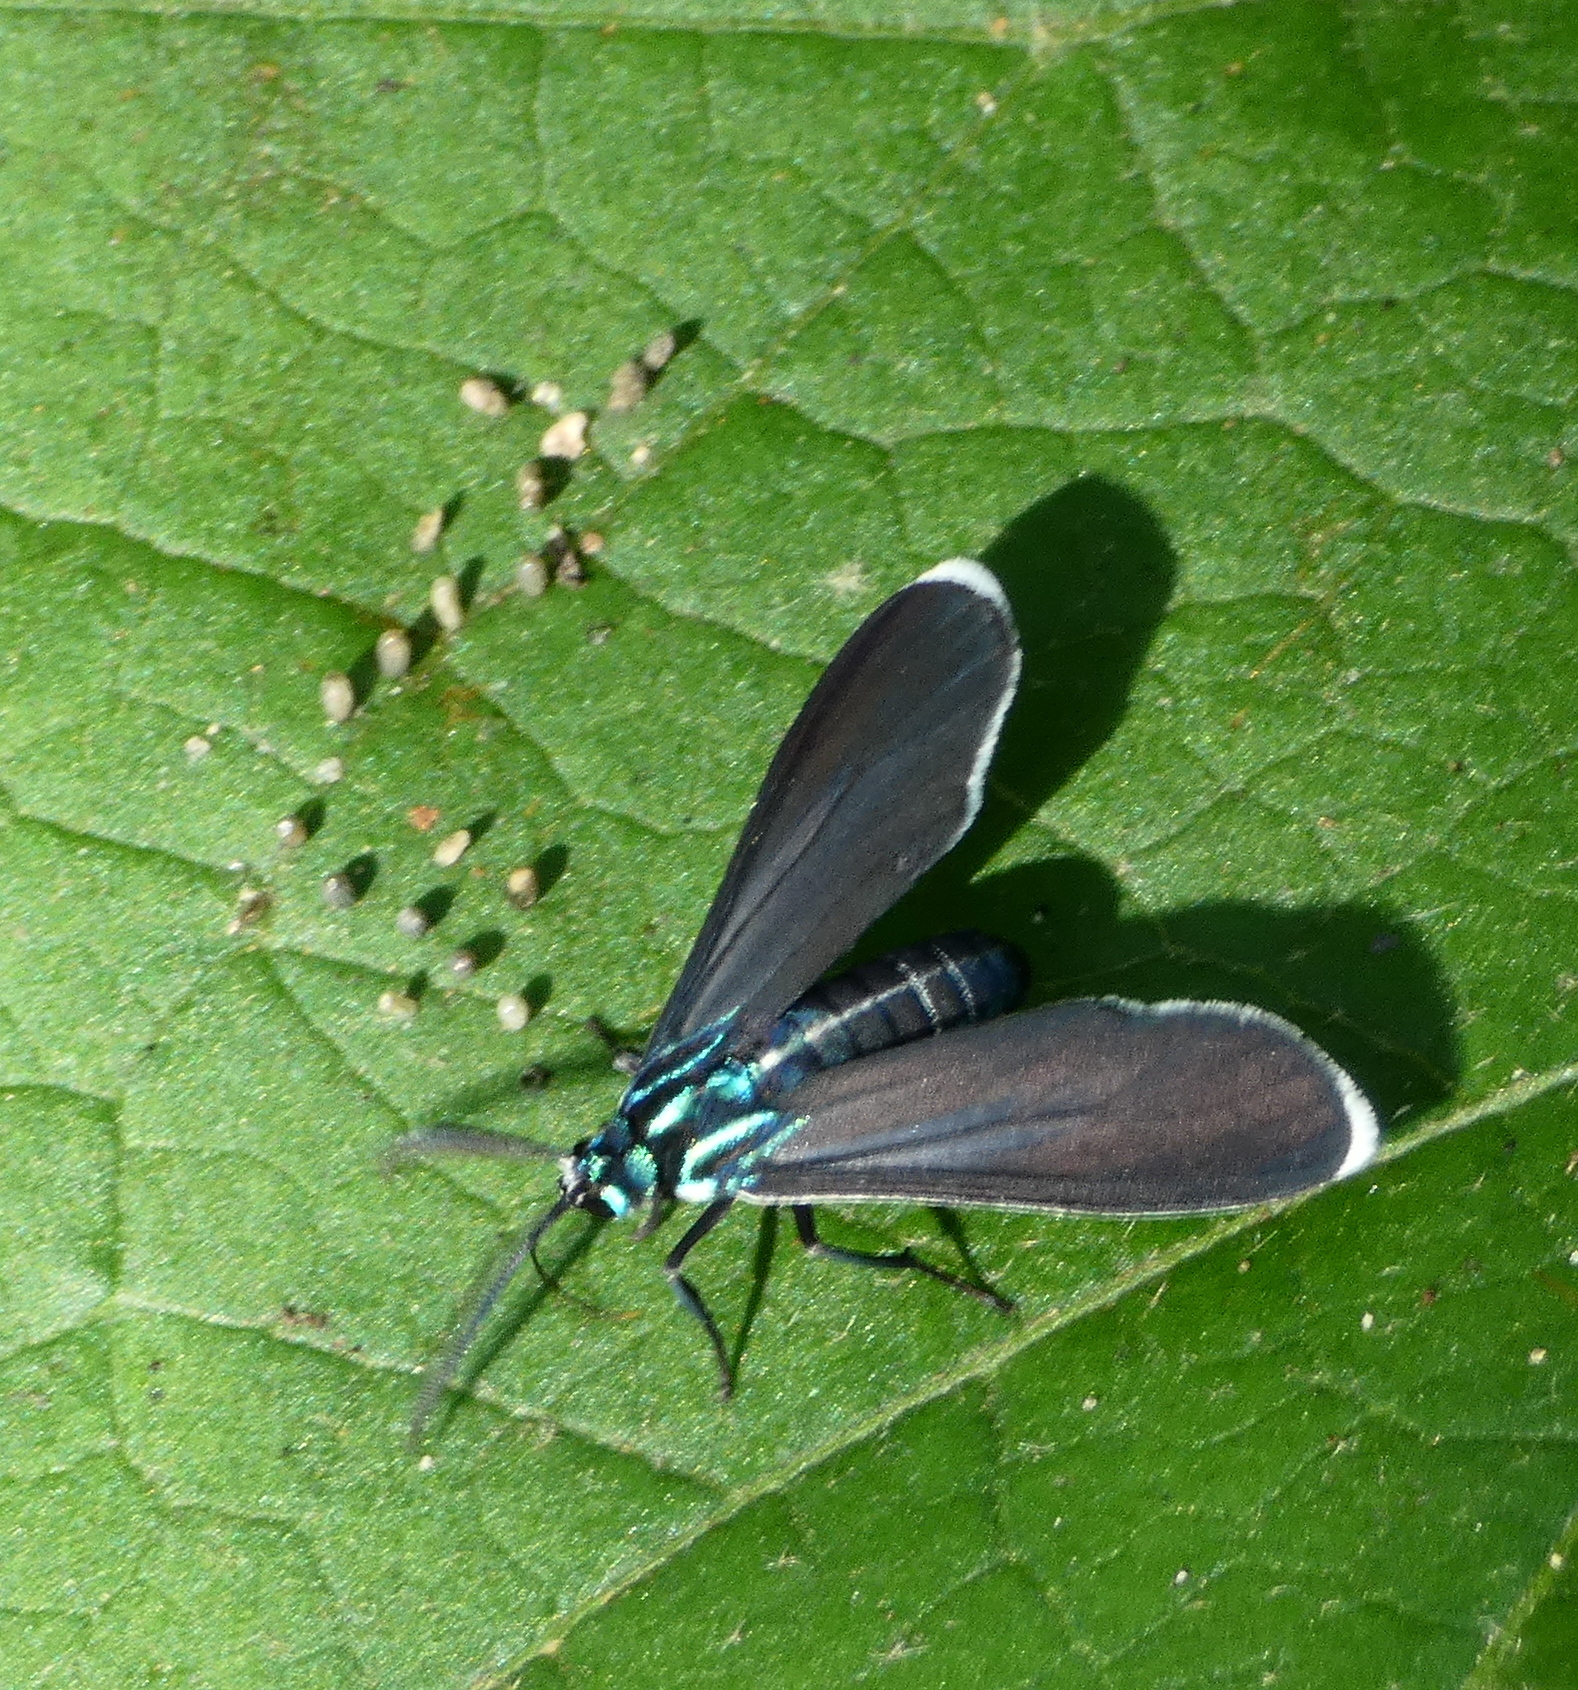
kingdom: Animalia
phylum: Arthropoda
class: Insecta
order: Lepidoptera
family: Erebidae
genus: Uranophora
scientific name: Uranophora Napata spec
